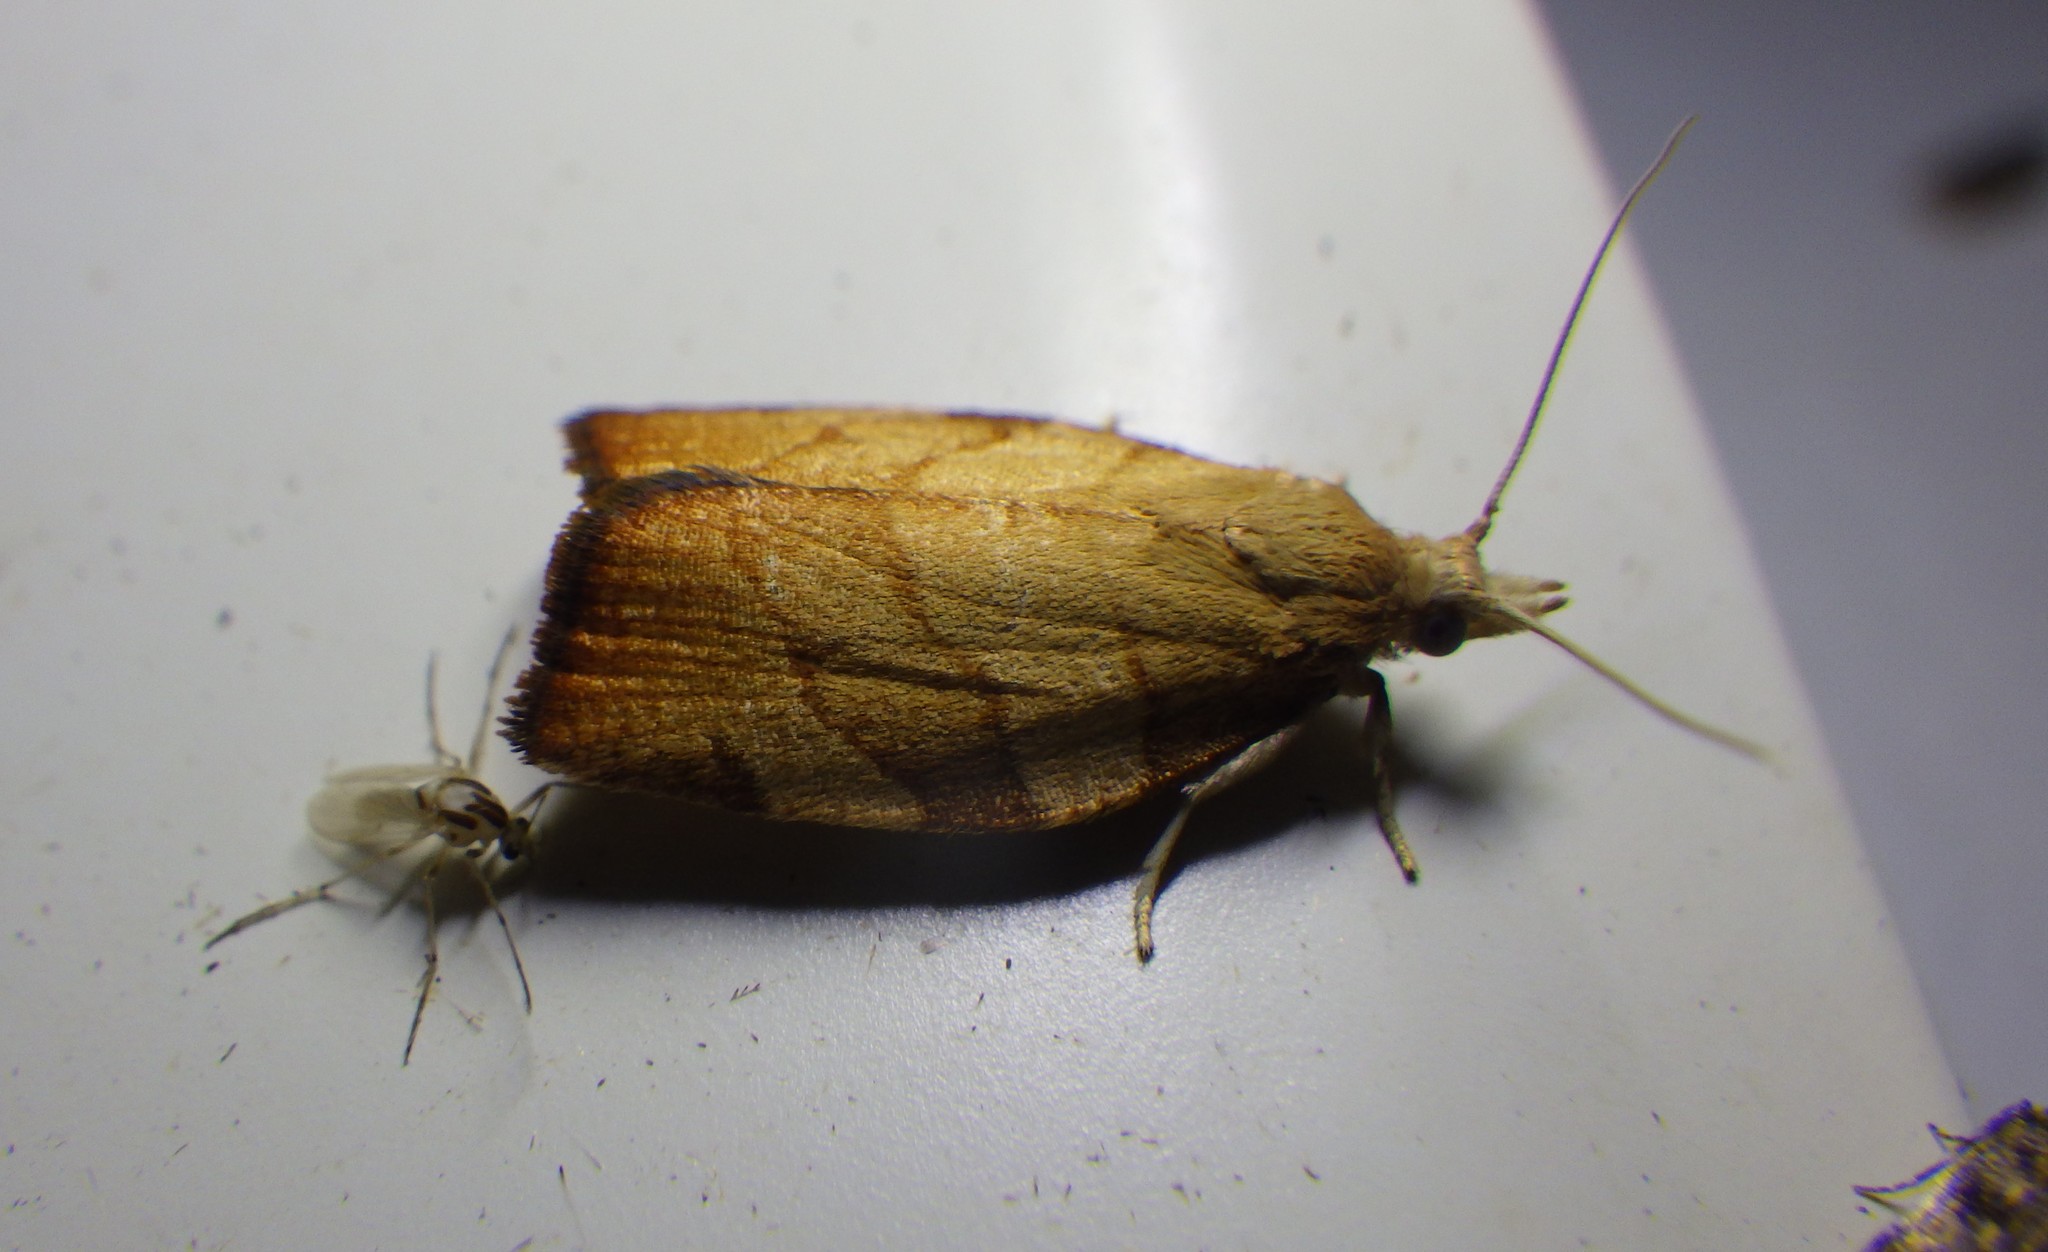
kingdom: Animalia
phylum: Arthropoda
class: Insecta
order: Lepidoptera
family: Tortricidae
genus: Pandemis
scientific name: Pandemis cerasana
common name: Barred fruit-tree tortrix
